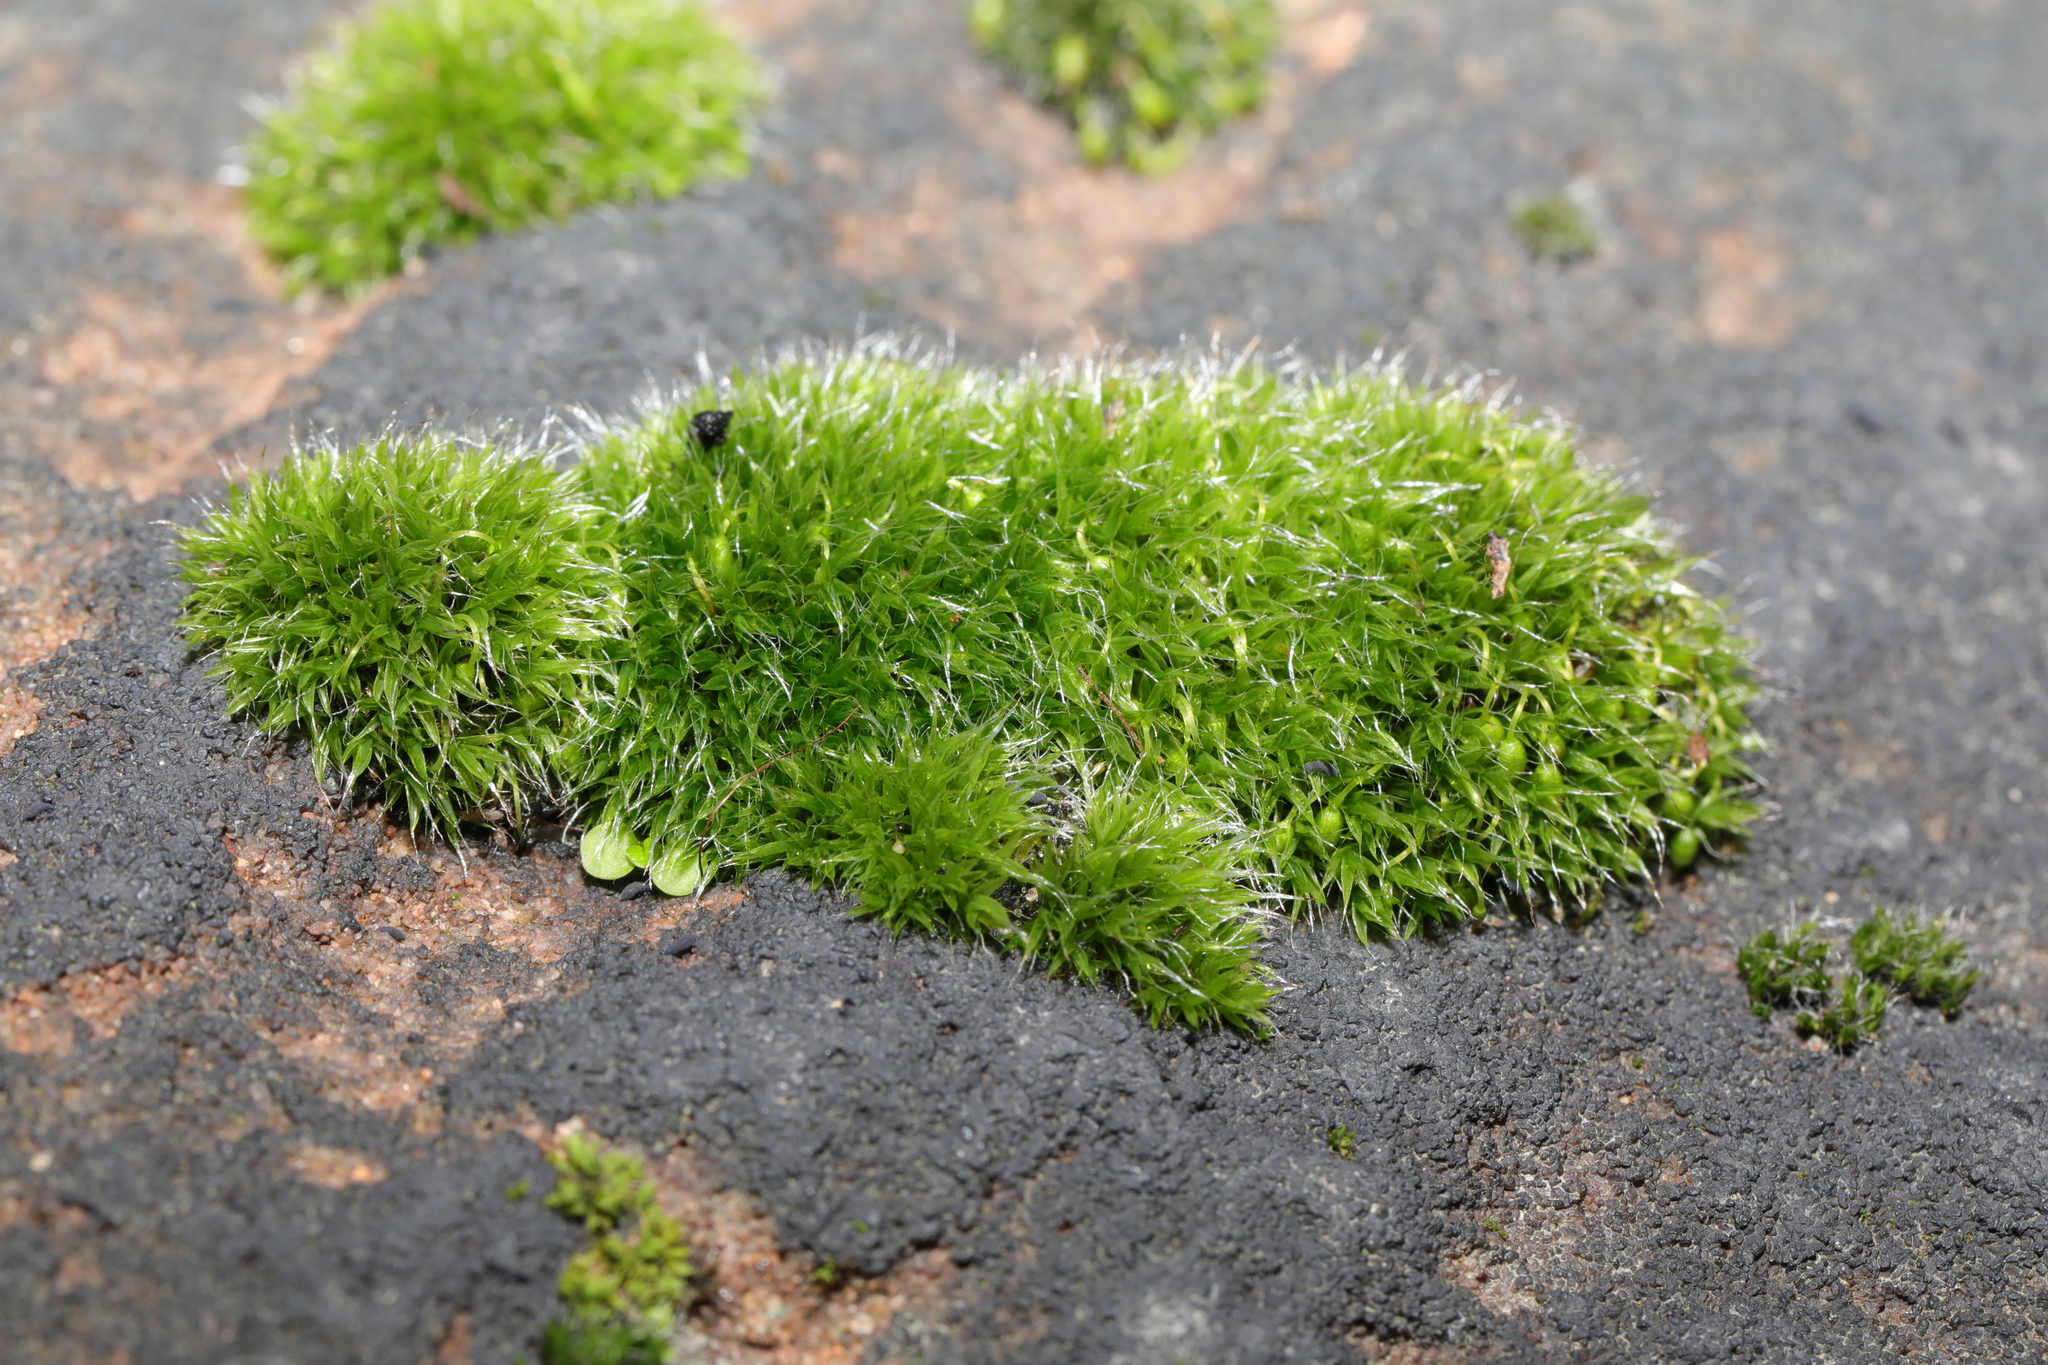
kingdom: Plantae
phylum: Bryophyta
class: Bryopsida
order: Grimmiales
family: Grimmiaceae
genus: Grimmia
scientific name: Grimmia pulvinata
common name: Grey-cushioned grimmia
